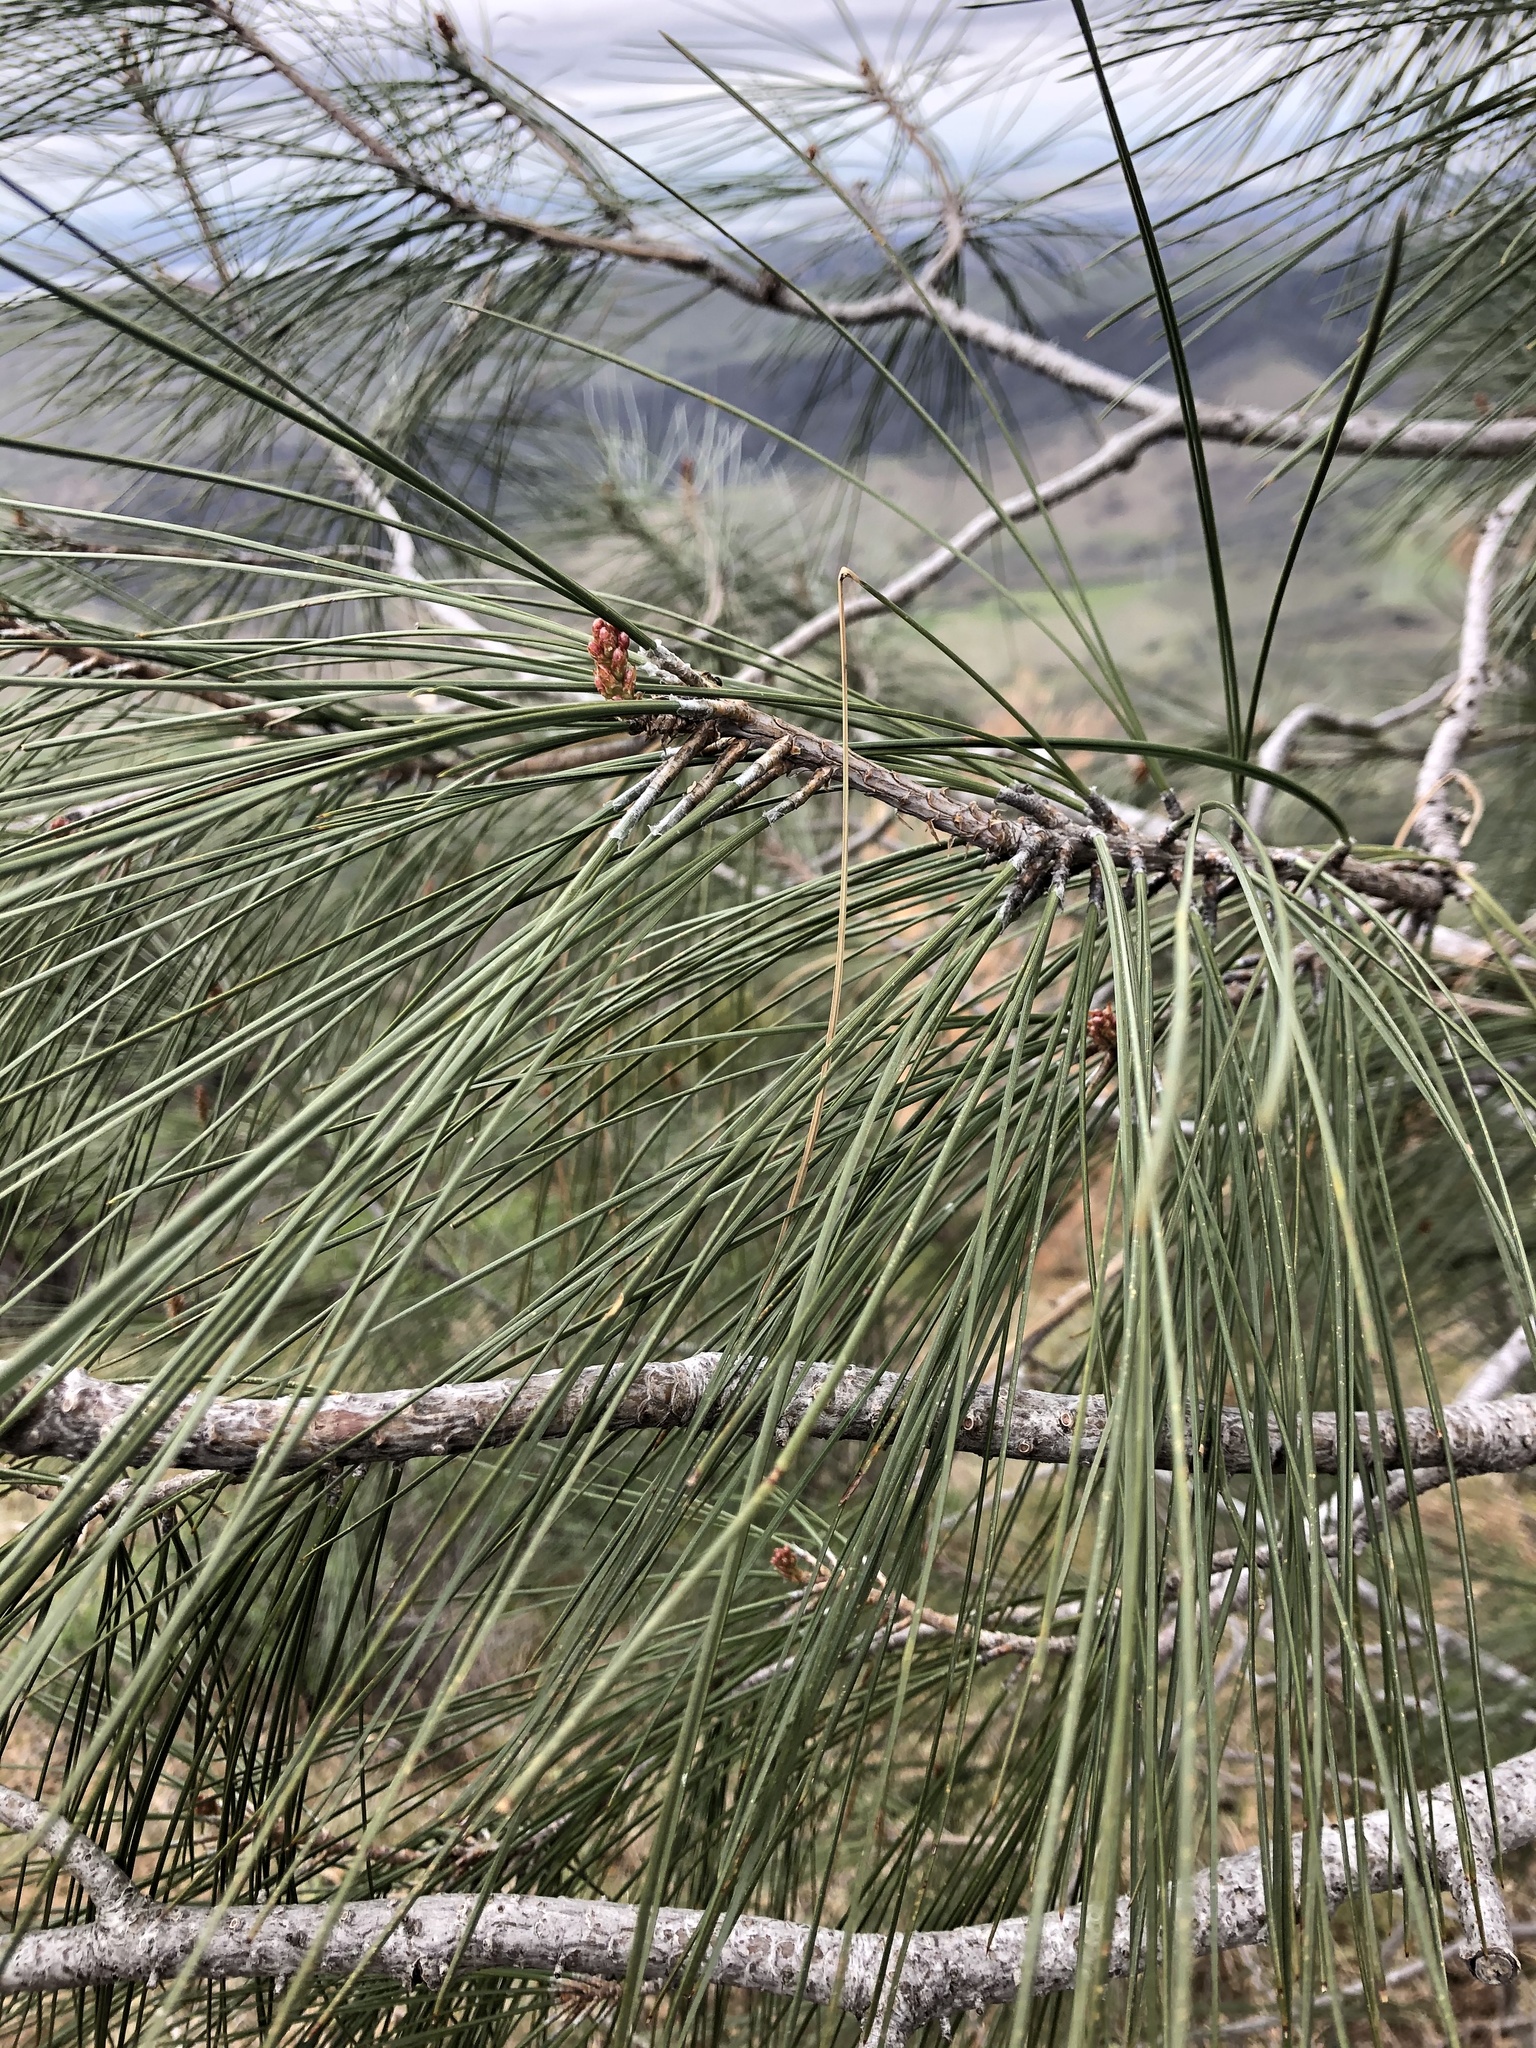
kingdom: Plantae
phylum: Tracheophyta
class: Pinopsida
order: Pinales
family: Pinaceae
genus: Pinus
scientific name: Pinus sabiniana
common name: Bull pine
